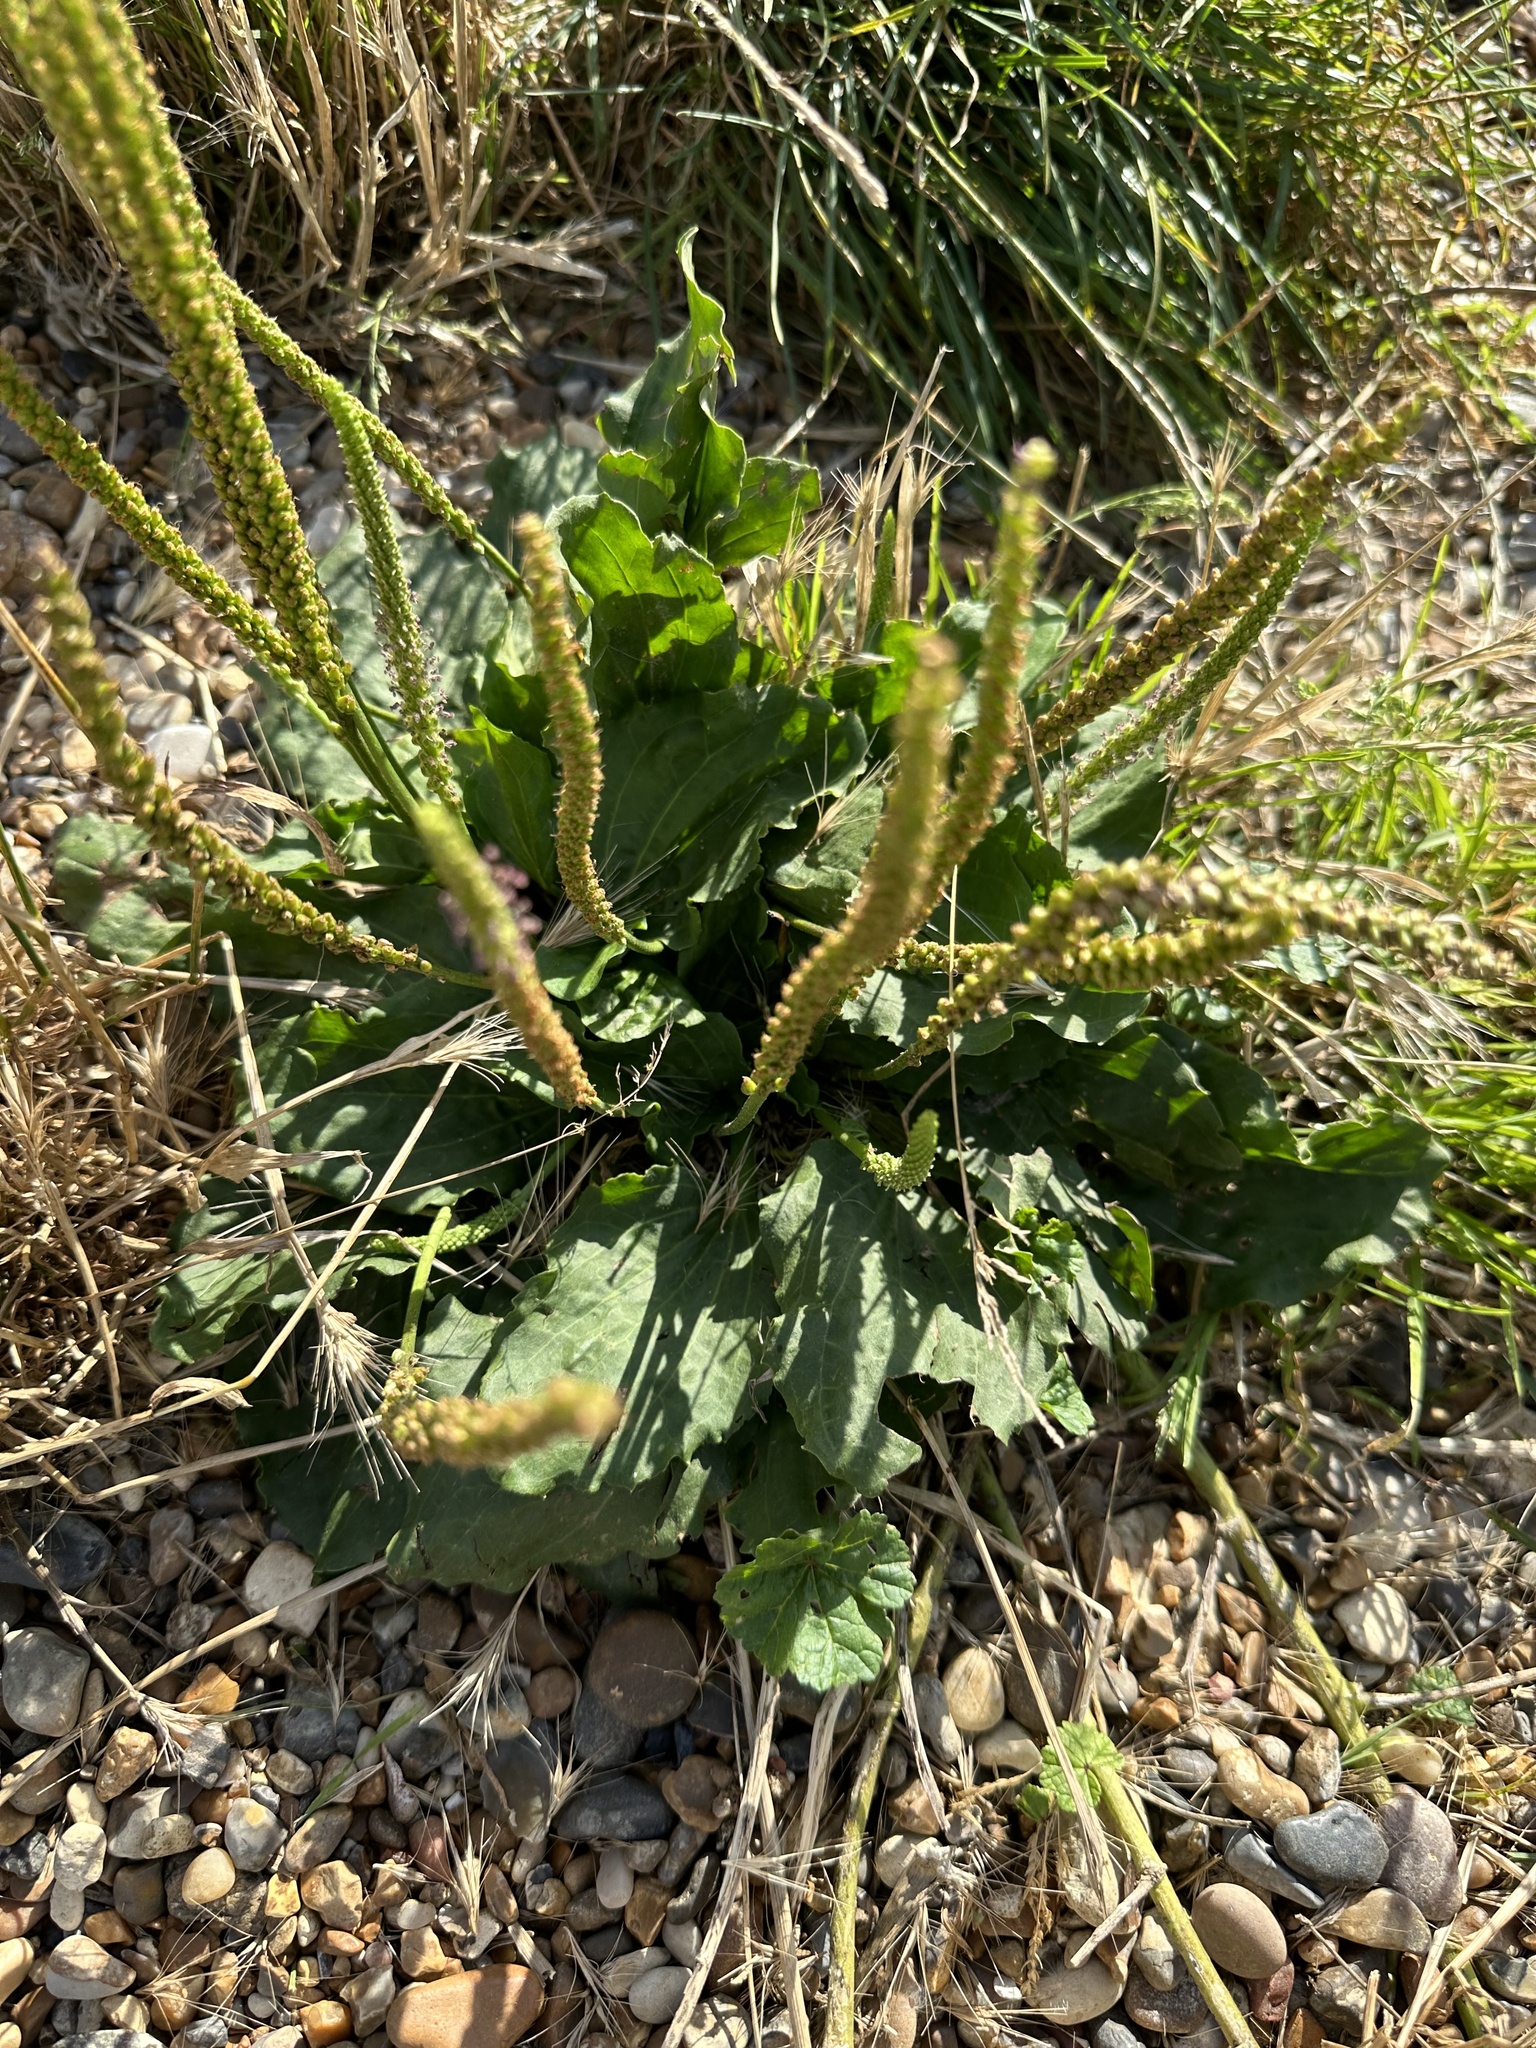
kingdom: Plantae
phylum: Tracheophyta
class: Magnoliopsida
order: Lamiales
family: Plantaginaceae
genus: Plantago
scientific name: Plantago major
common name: Common plantain
